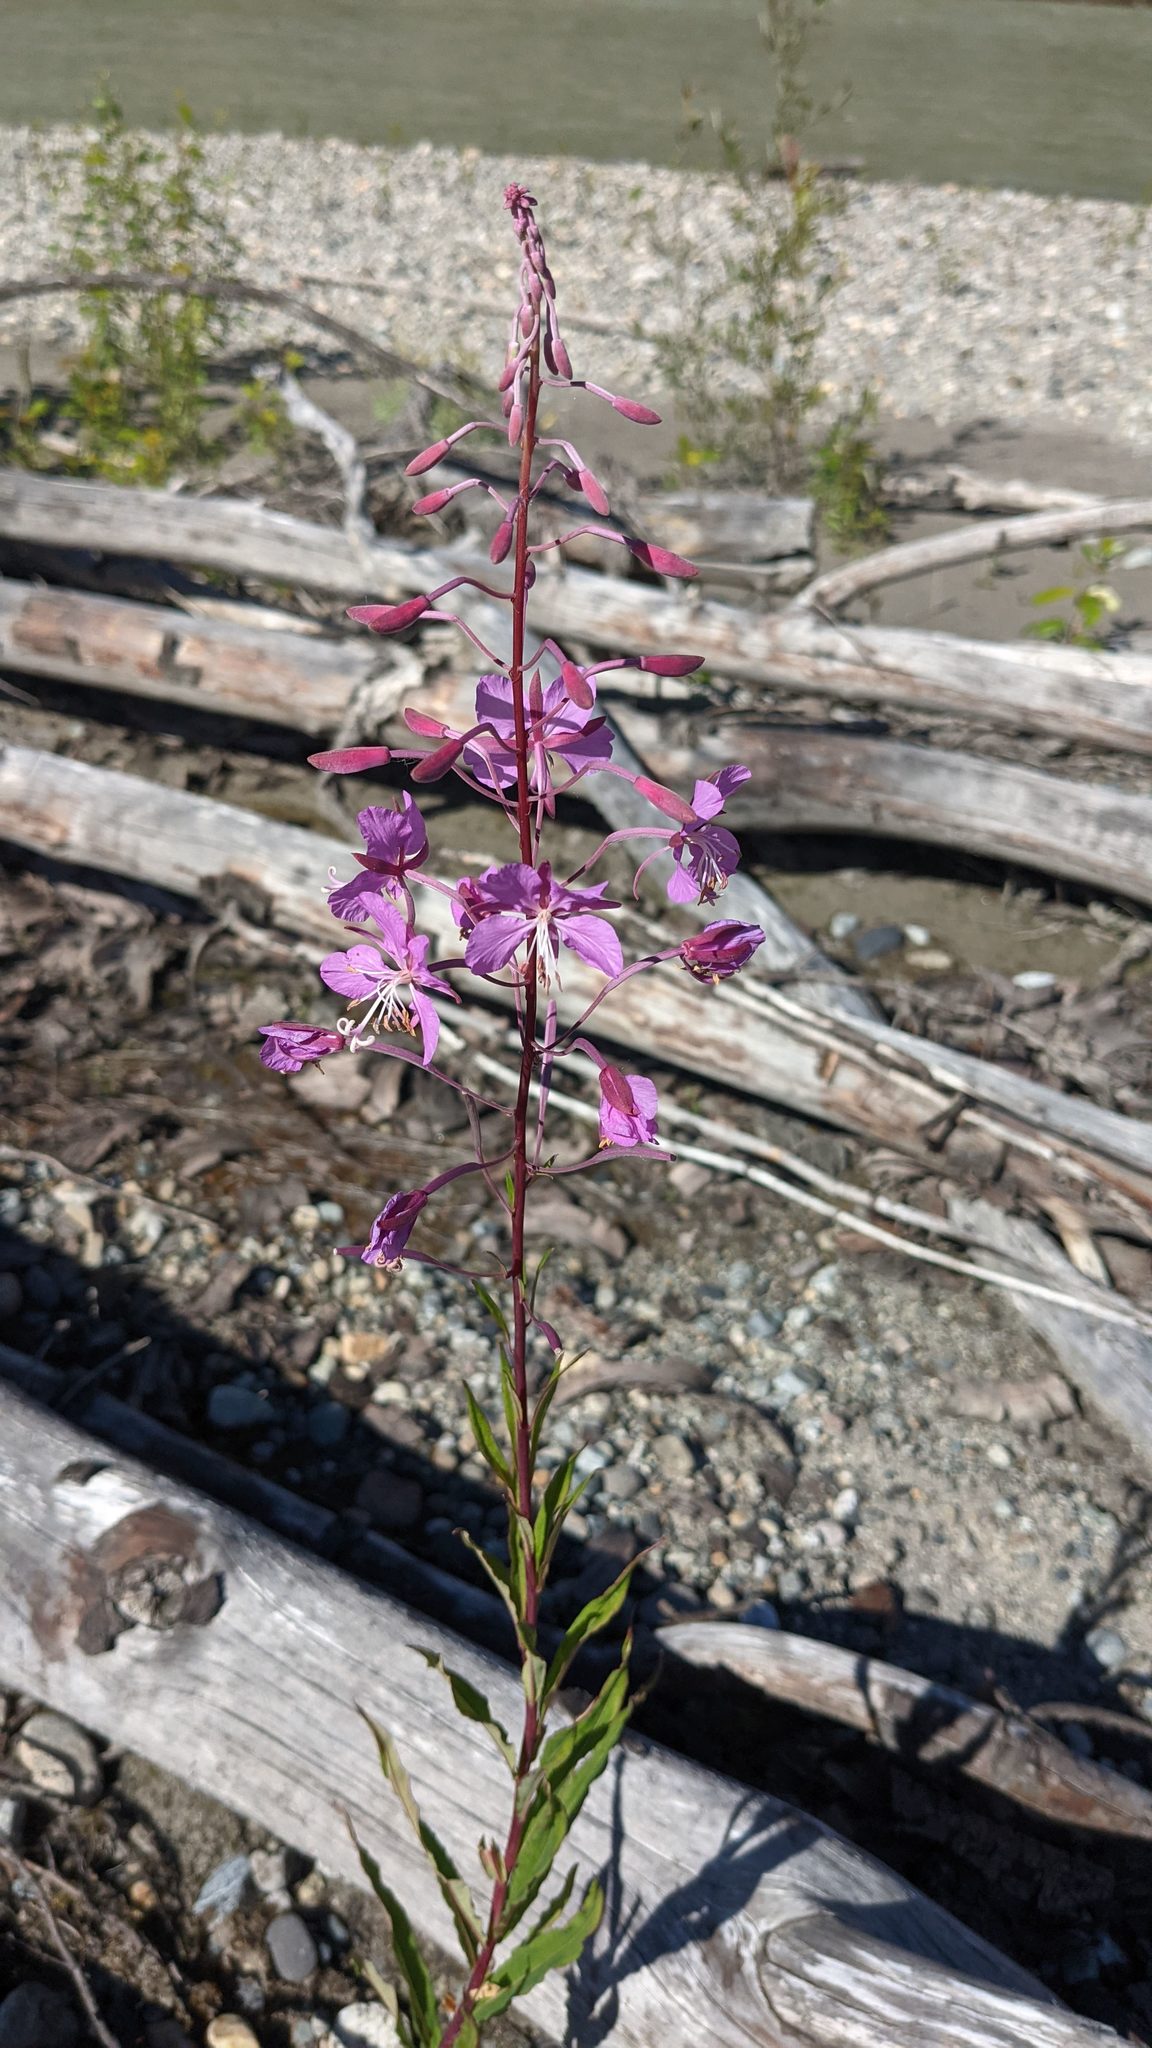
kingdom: Plantae
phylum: Tracheophyta
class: Magnoliopsida
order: Myrtales
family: Onagraceae
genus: Chamaenerion
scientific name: Chamaenerion angustifolium
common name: Fireweed
